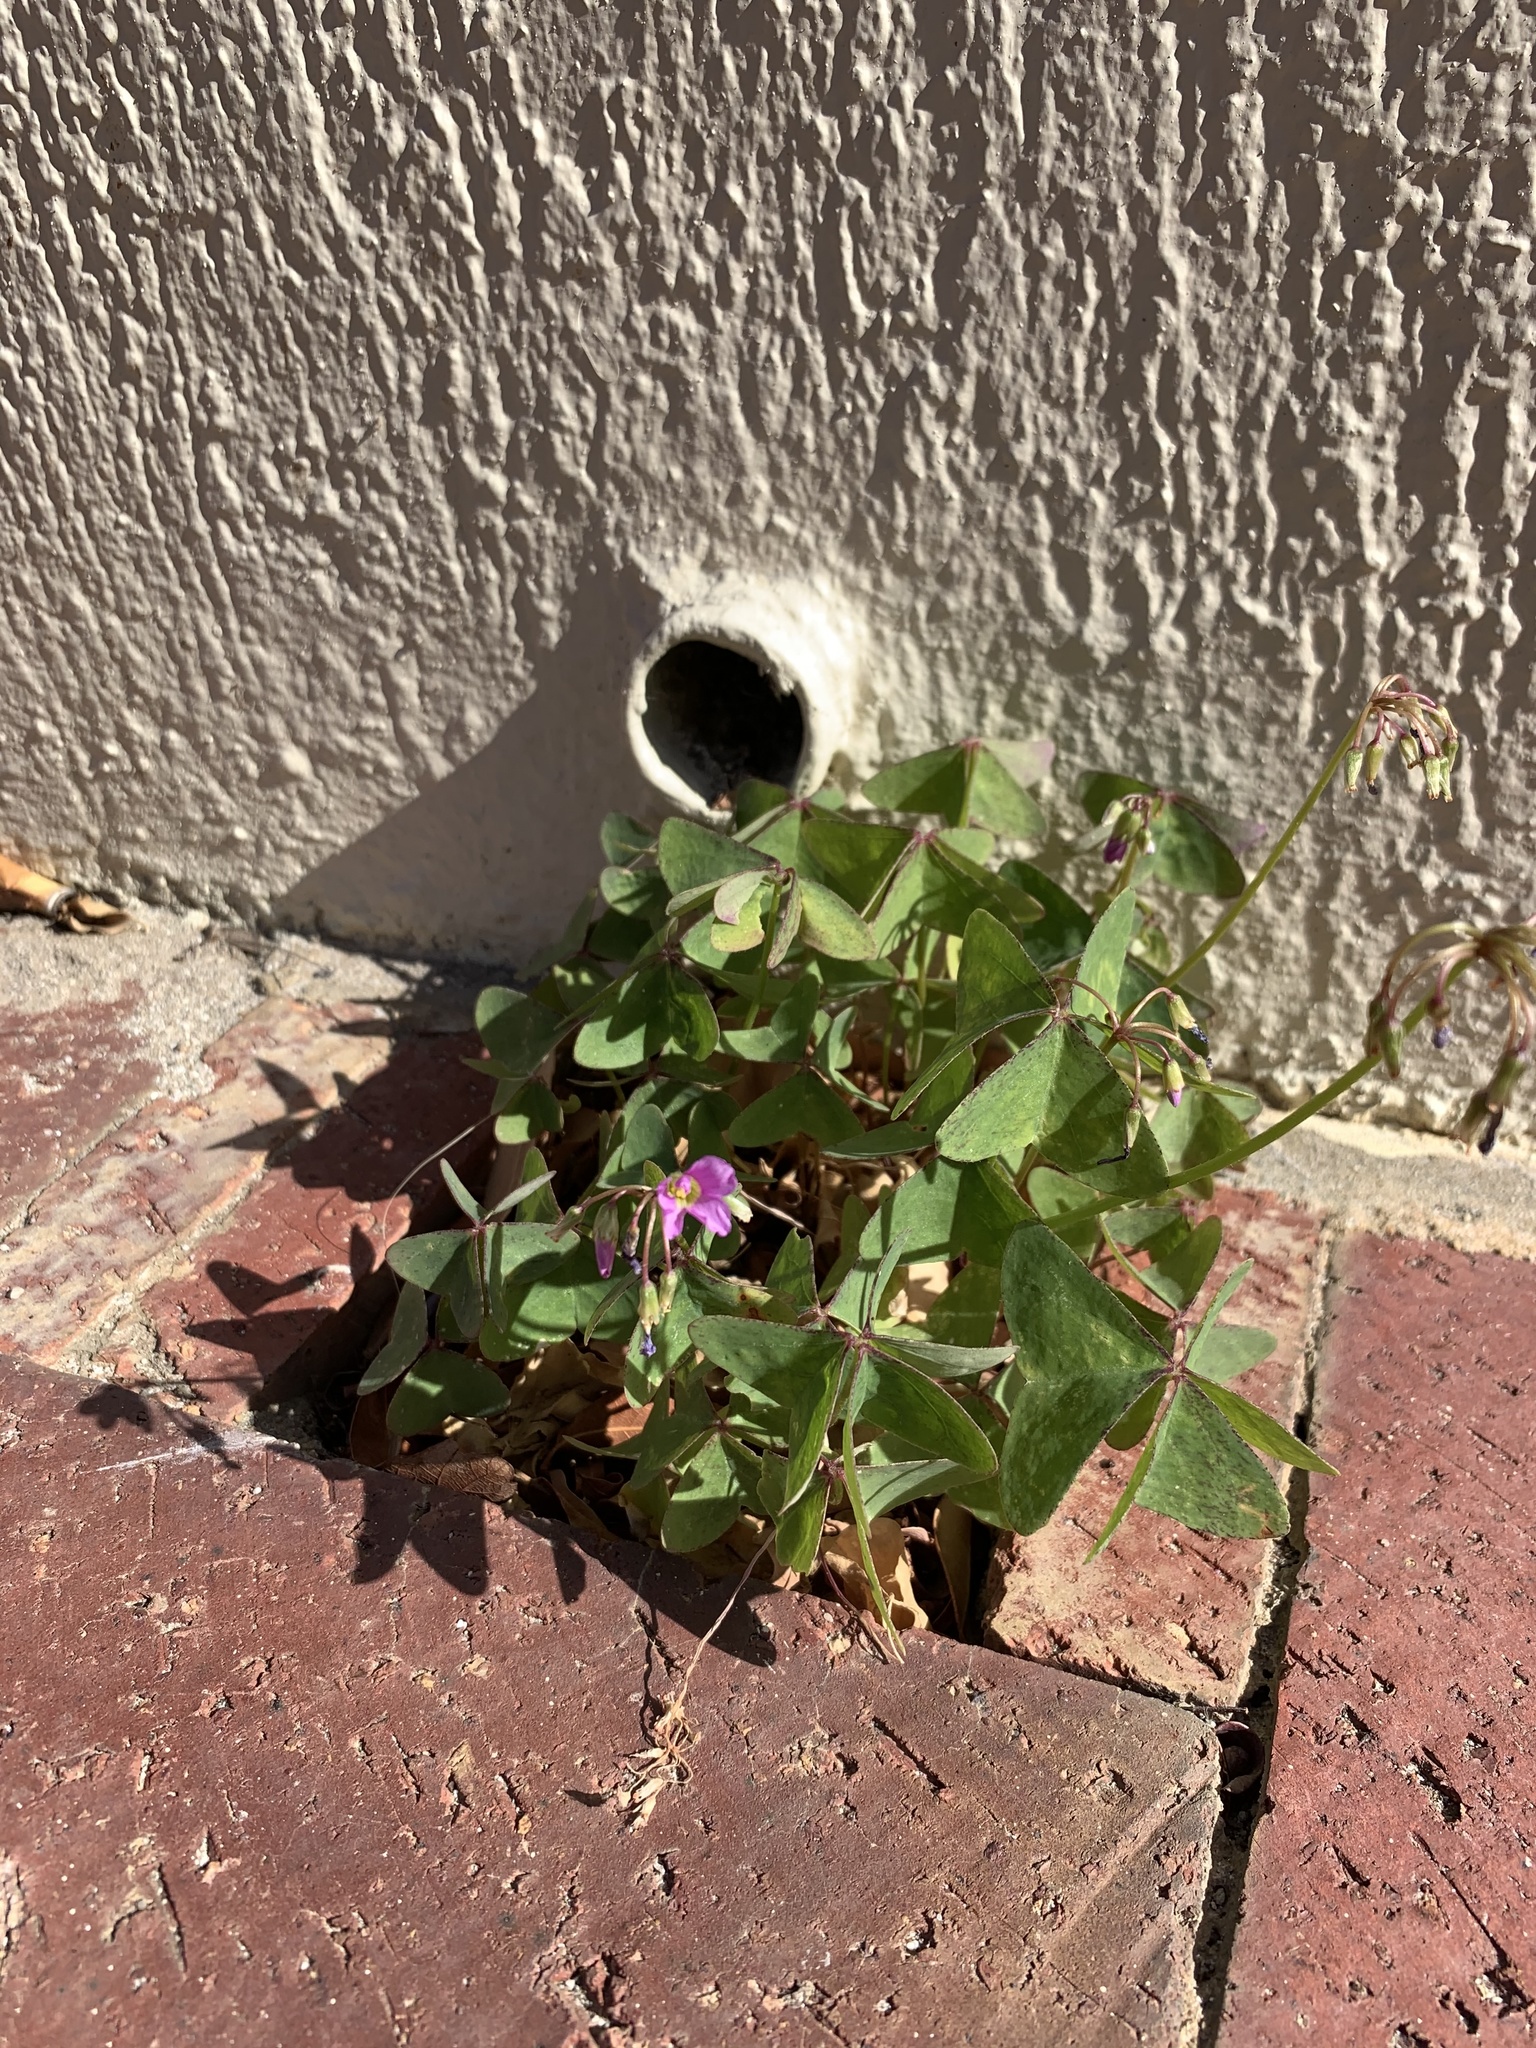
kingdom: Plantae
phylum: Tracheophyta
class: Magnoliopsida
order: Oxalidales
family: Oxalidaceae
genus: Oxalis
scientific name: Oxalis latifolia
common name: Garden pink-sorrel
